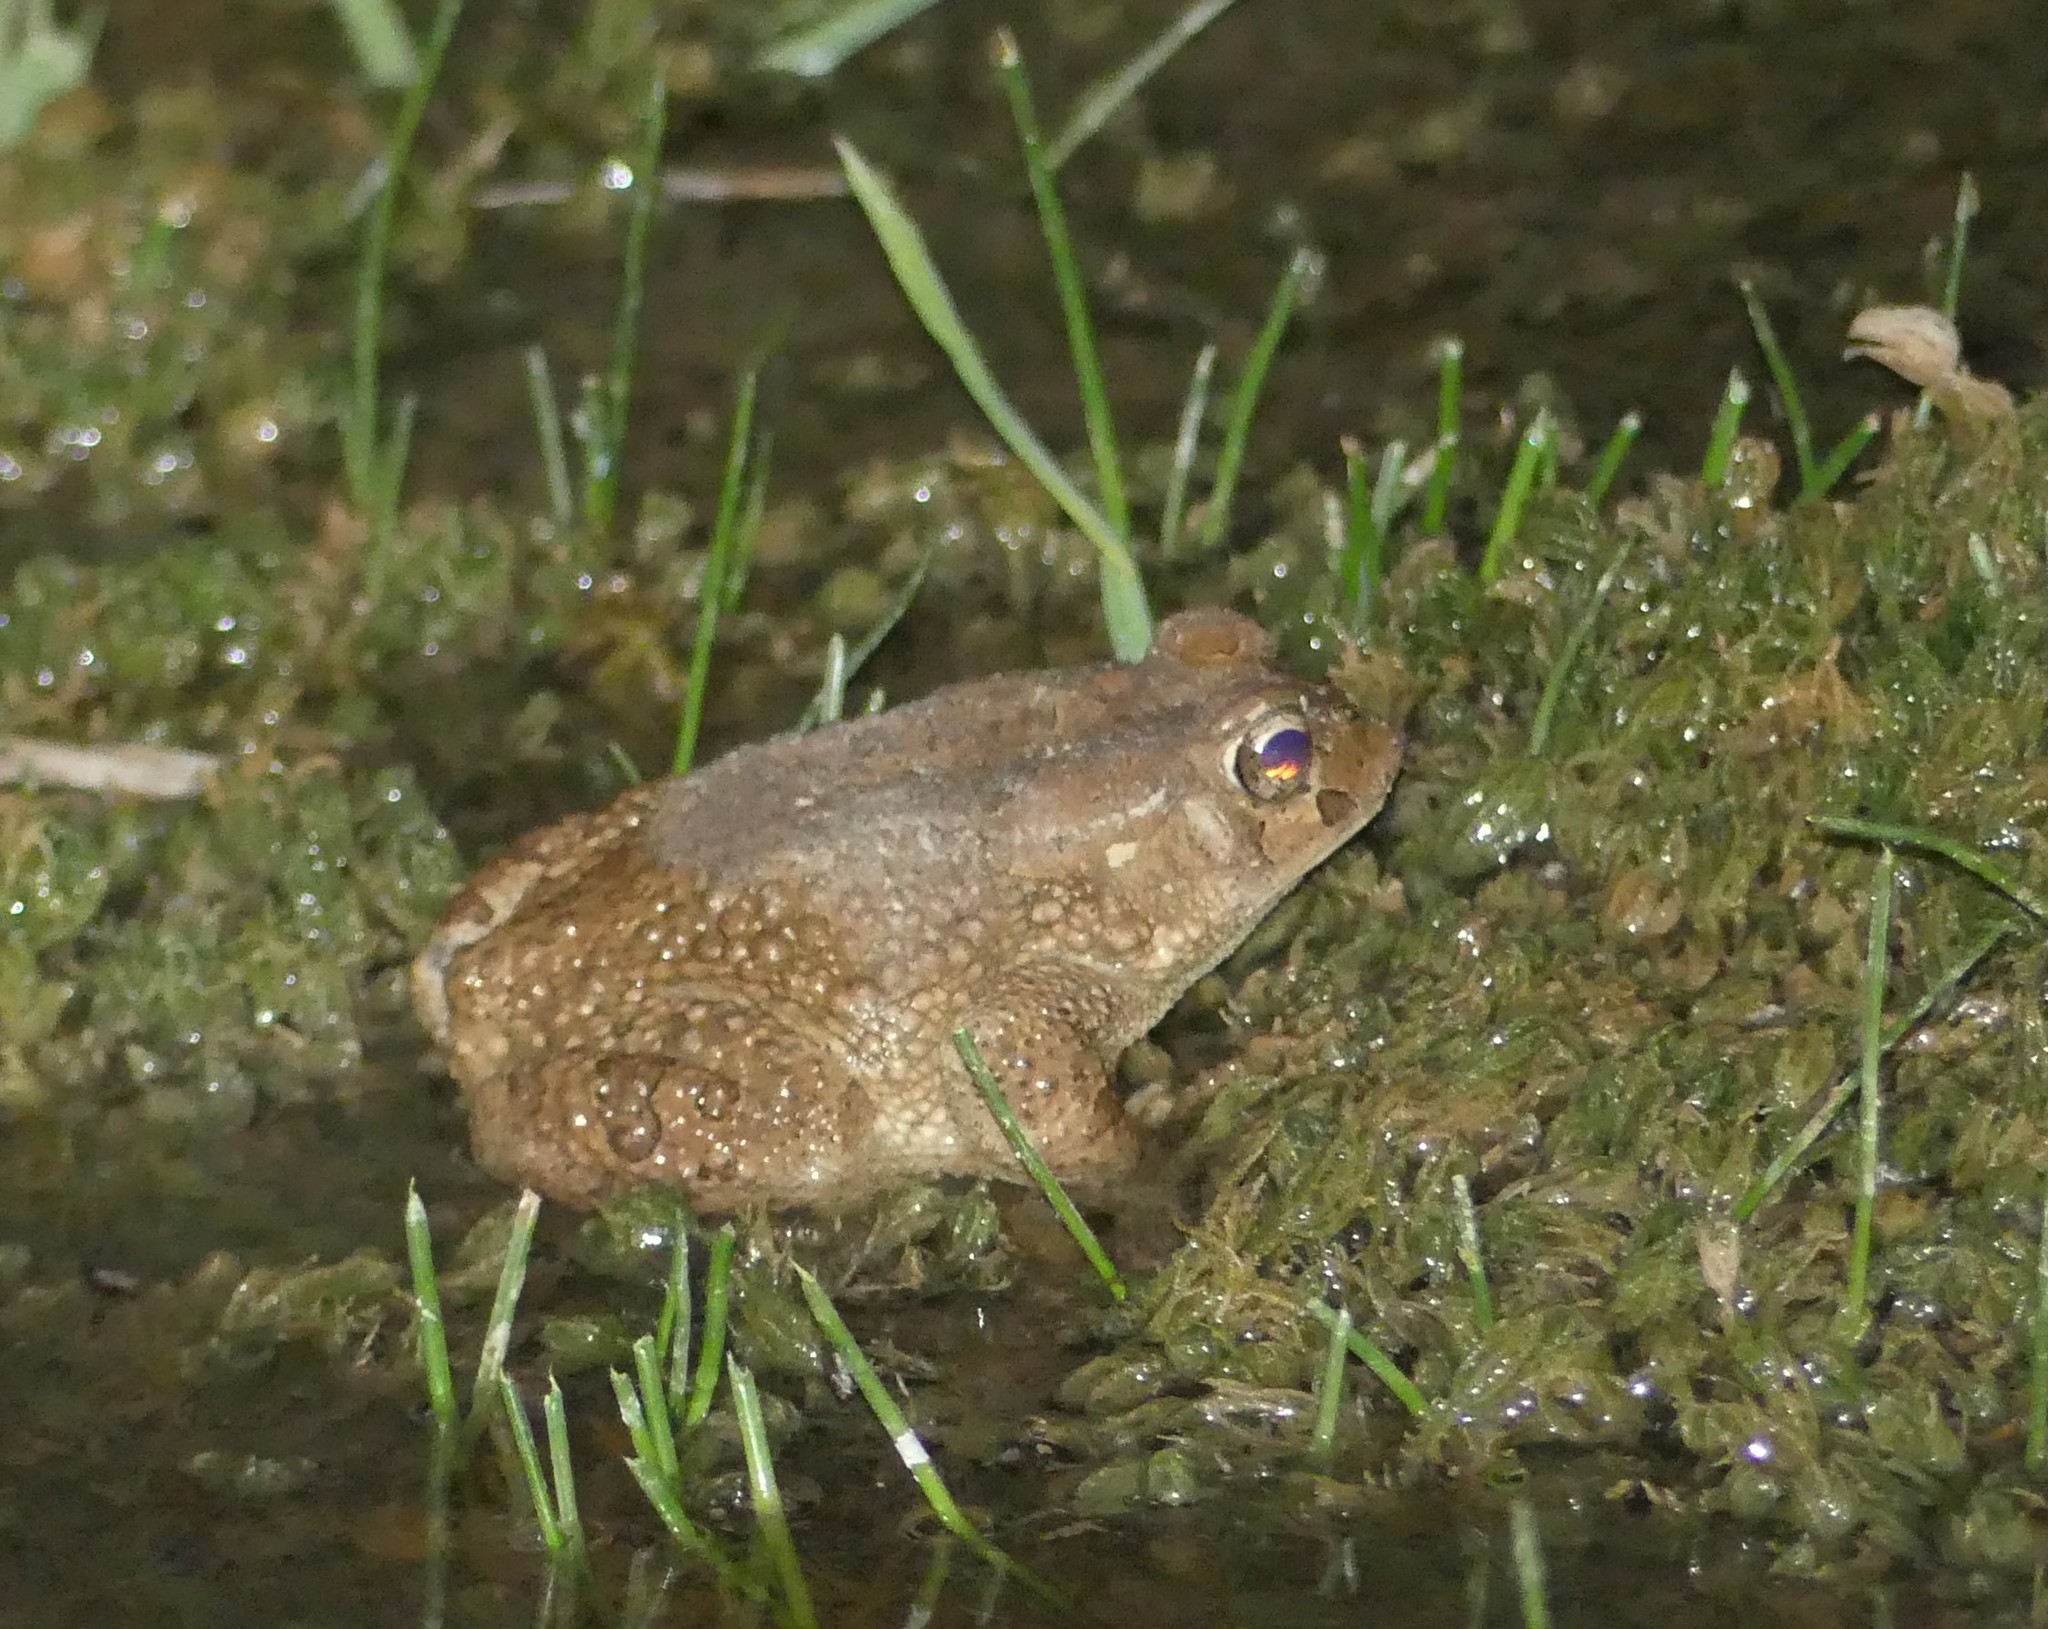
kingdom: Animalia
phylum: Chordata
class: Amphibia
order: Anura
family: Bufonidae
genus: Sclerophrys
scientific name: Sclerophrys mauritanica
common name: Berber toad
